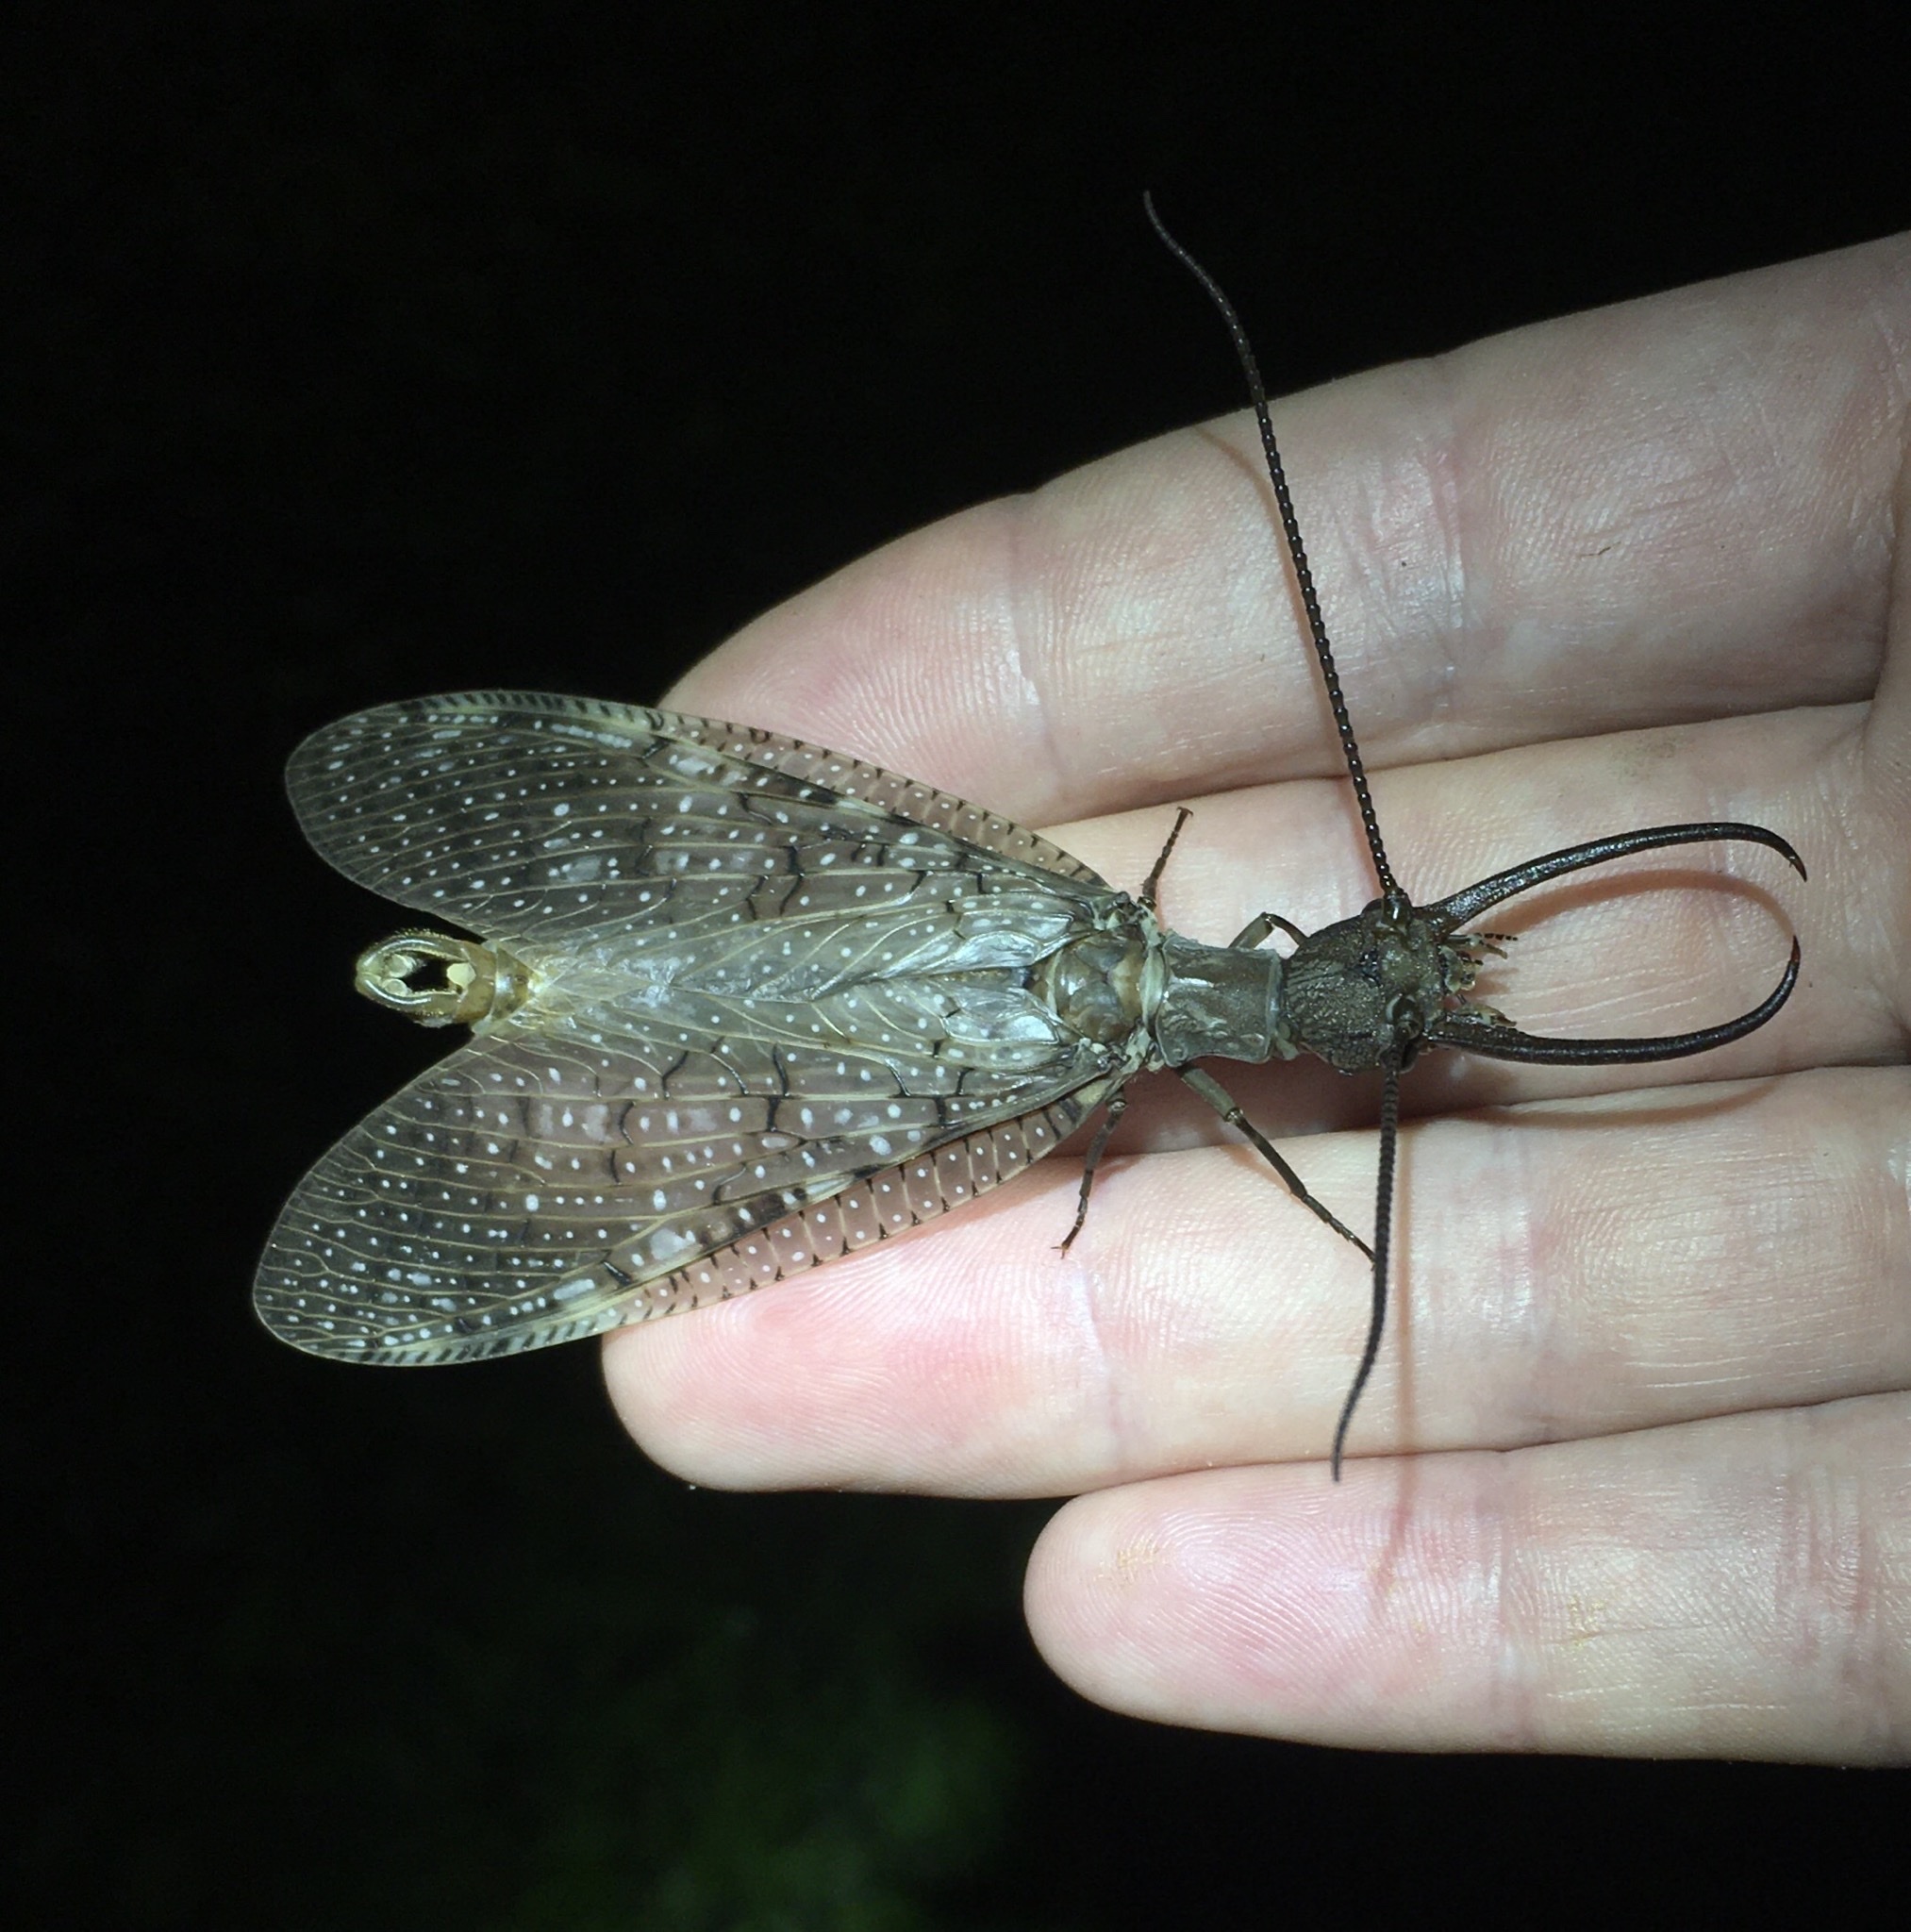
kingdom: Animalia
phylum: Arthropoda
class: Insecta
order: Megaloptera
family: Corydalidae
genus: Corydalus
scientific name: Corydalus cornutus
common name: Dobsonfly
